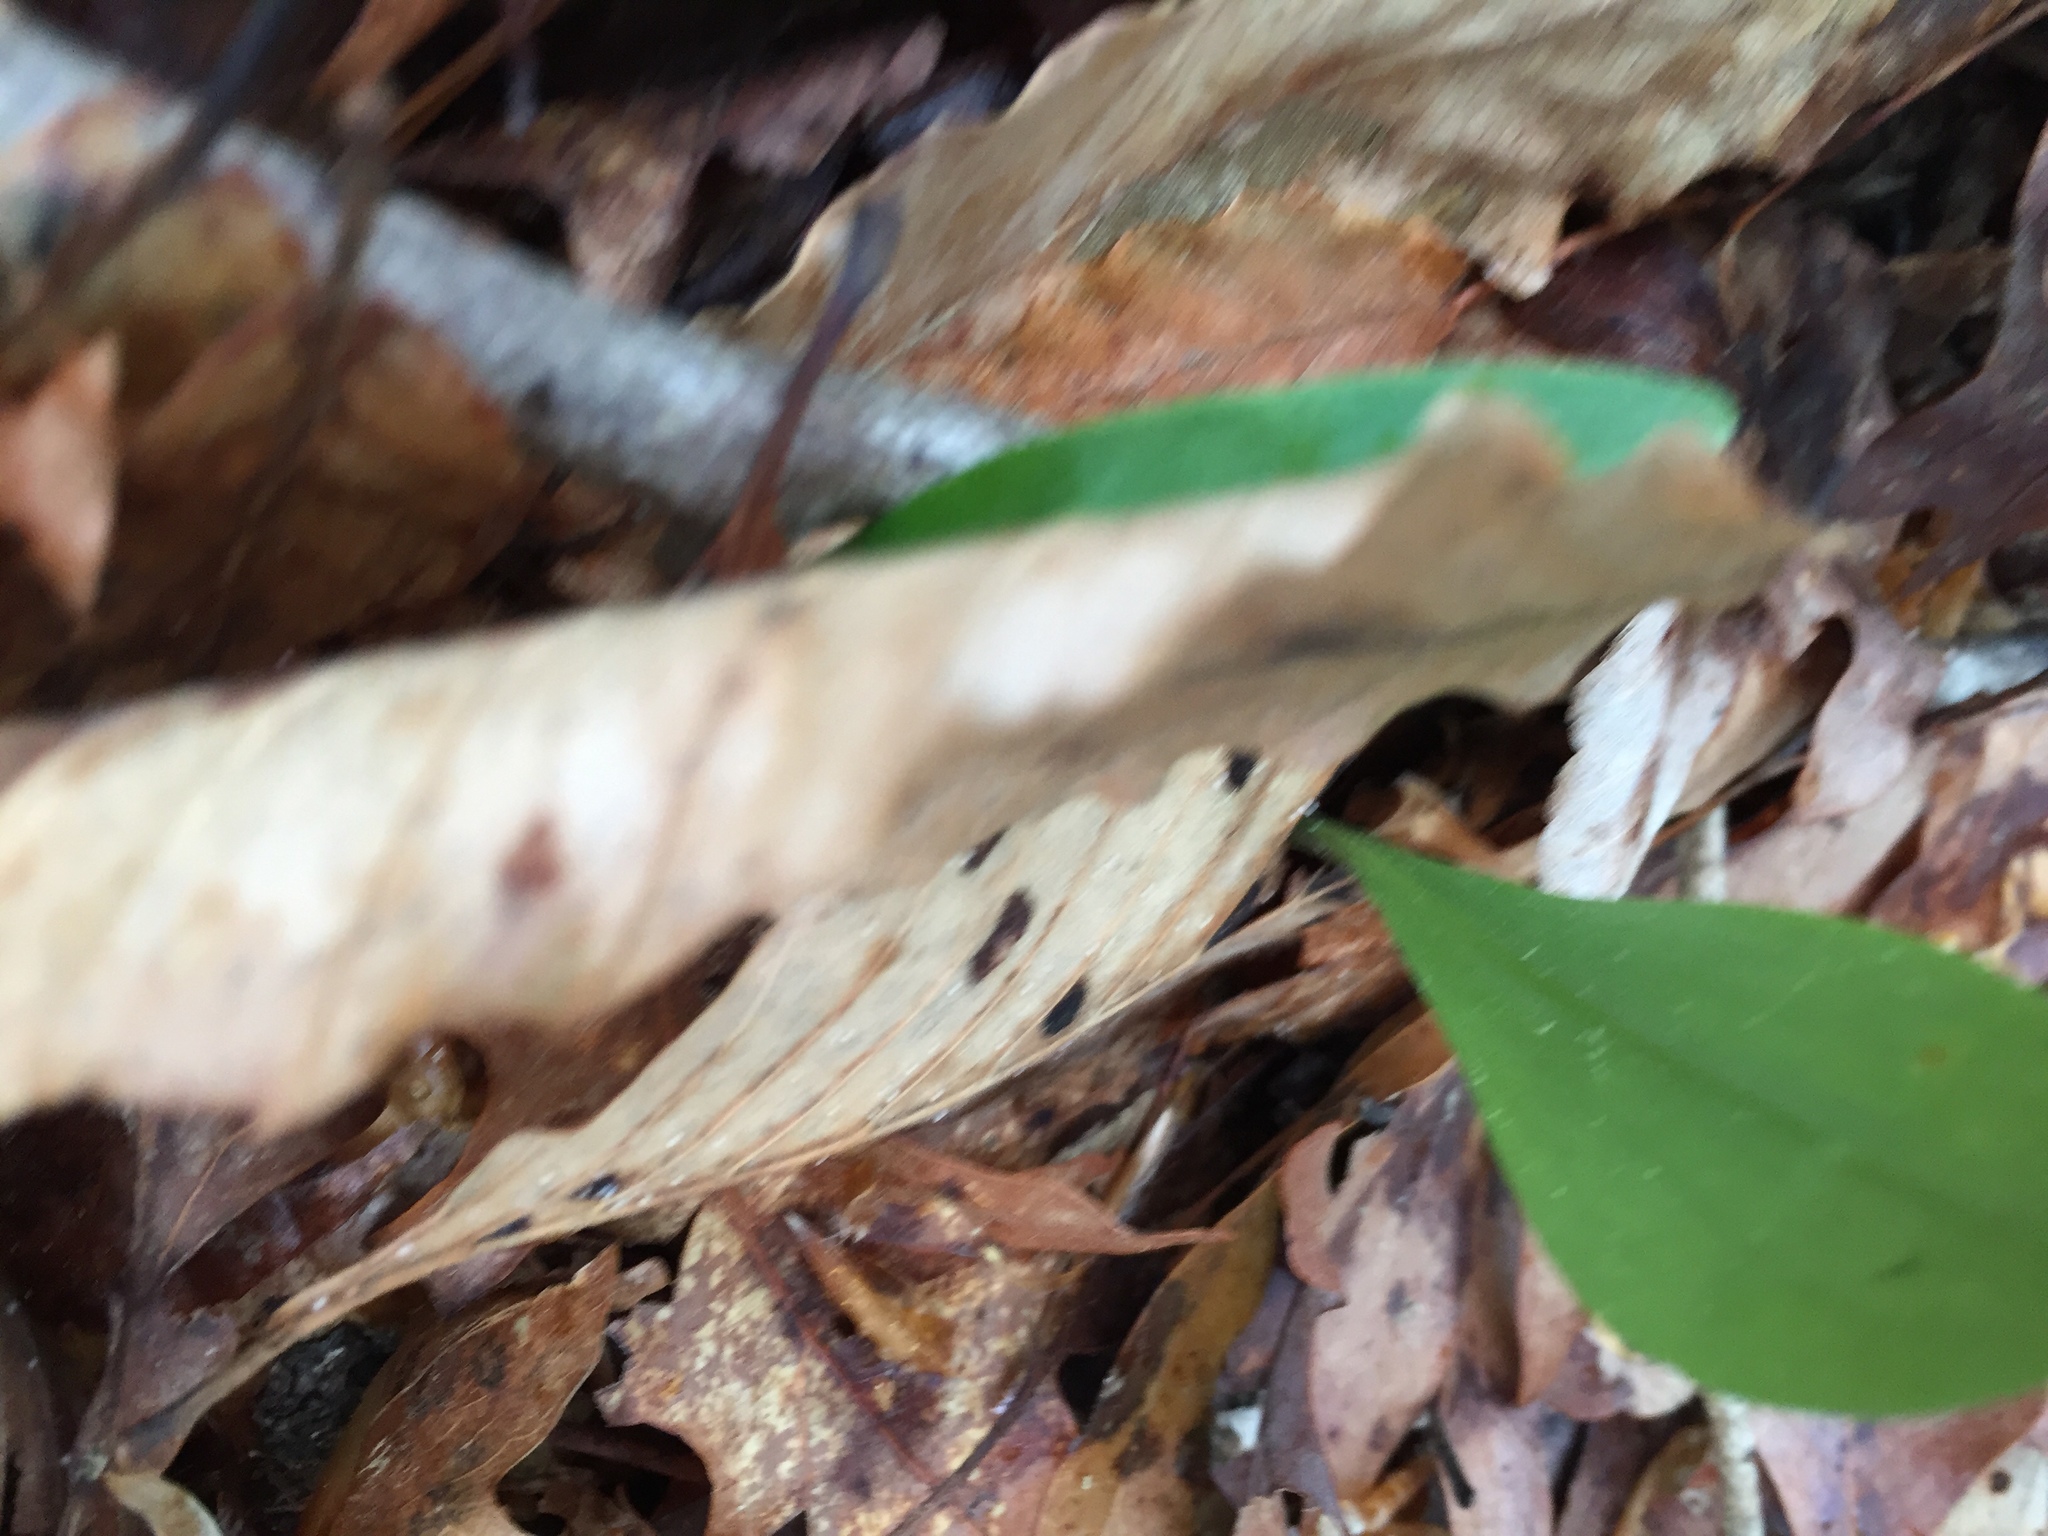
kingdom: Plantae
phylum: Tracheophyta
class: Liliopsida
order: Liliales
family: Liliaceae
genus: Lilium
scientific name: Lilium michauxii
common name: Carolina lily
